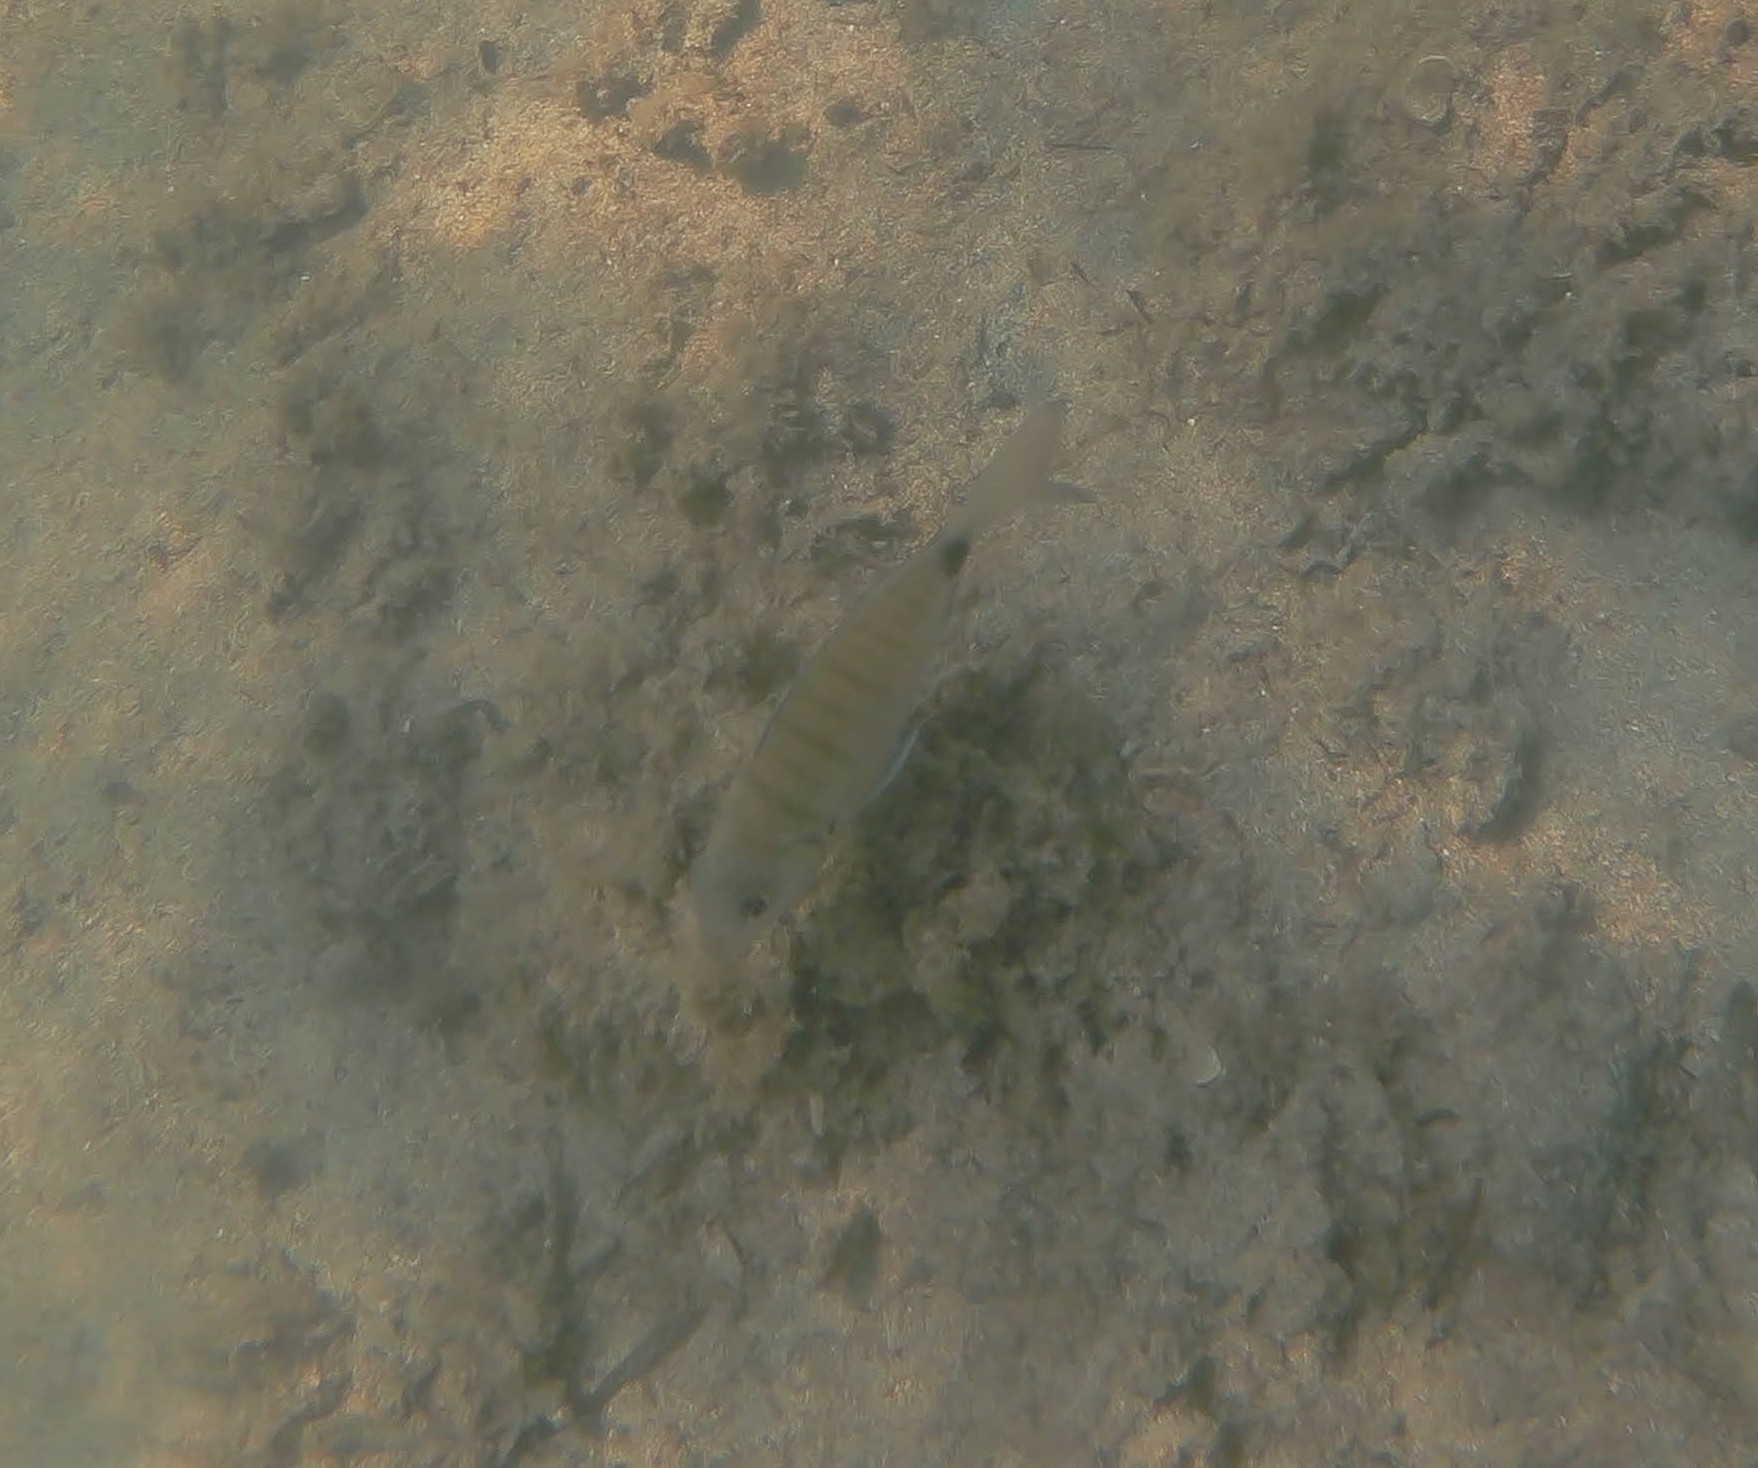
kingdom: Animalia
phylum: Chordata
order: Perciformes
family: Sparidae
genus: Diplodus
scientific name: Diplodus sargus
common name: White seabream
